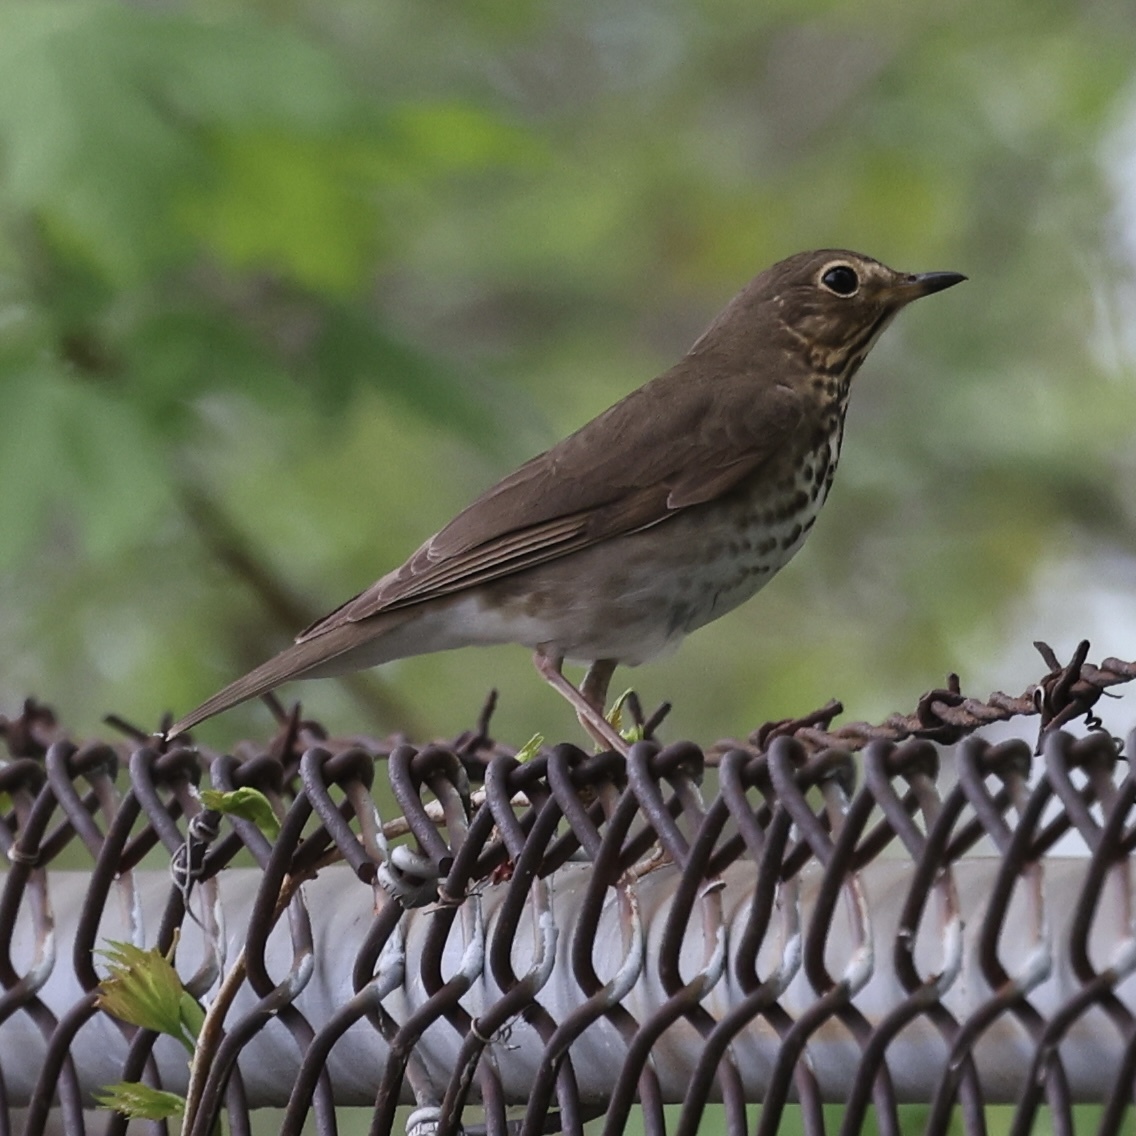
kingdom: Animalia
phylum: Chordata
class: Aves
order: Passeriformes
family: Turdidae
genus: Catharus
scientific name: Catharus ustulatus
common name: Swainson's thrush
